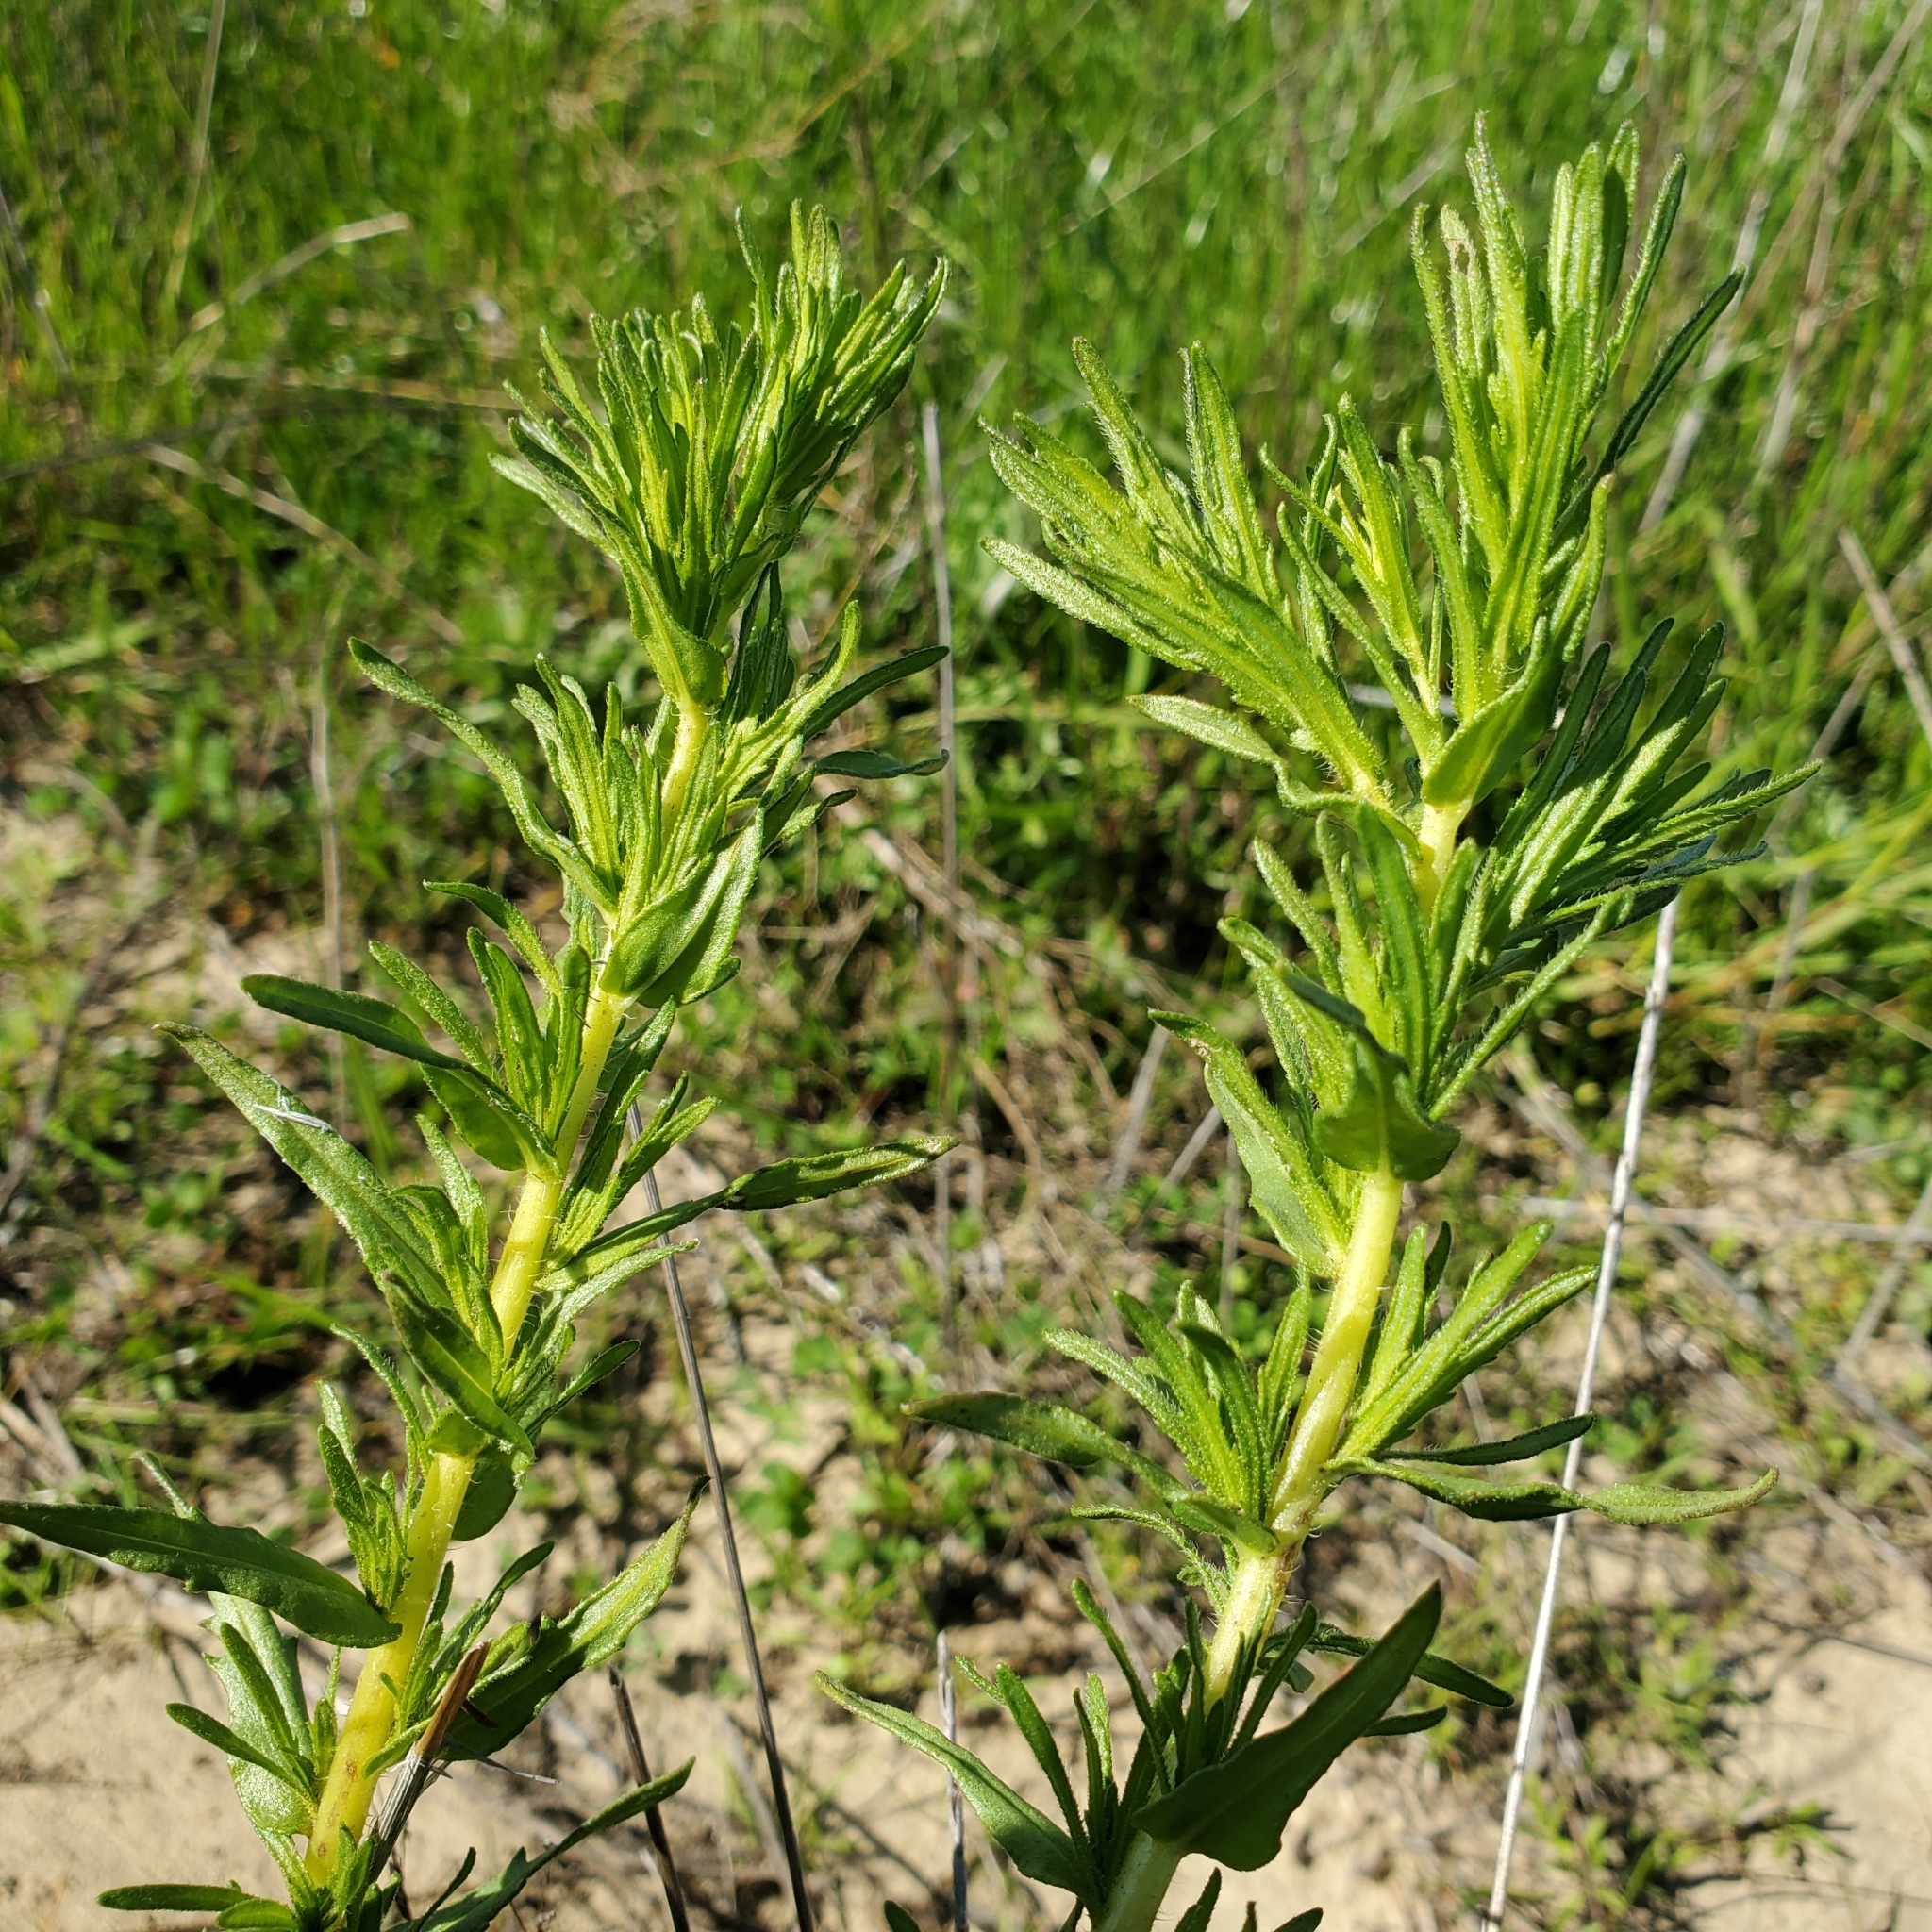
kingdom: Plantae
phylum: Tracheophyta
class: Magnoliopsida
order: Asterales
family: Asteraceae
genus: Deinandra
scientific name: Deinandra fasciculata
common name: Clustered tarweed
